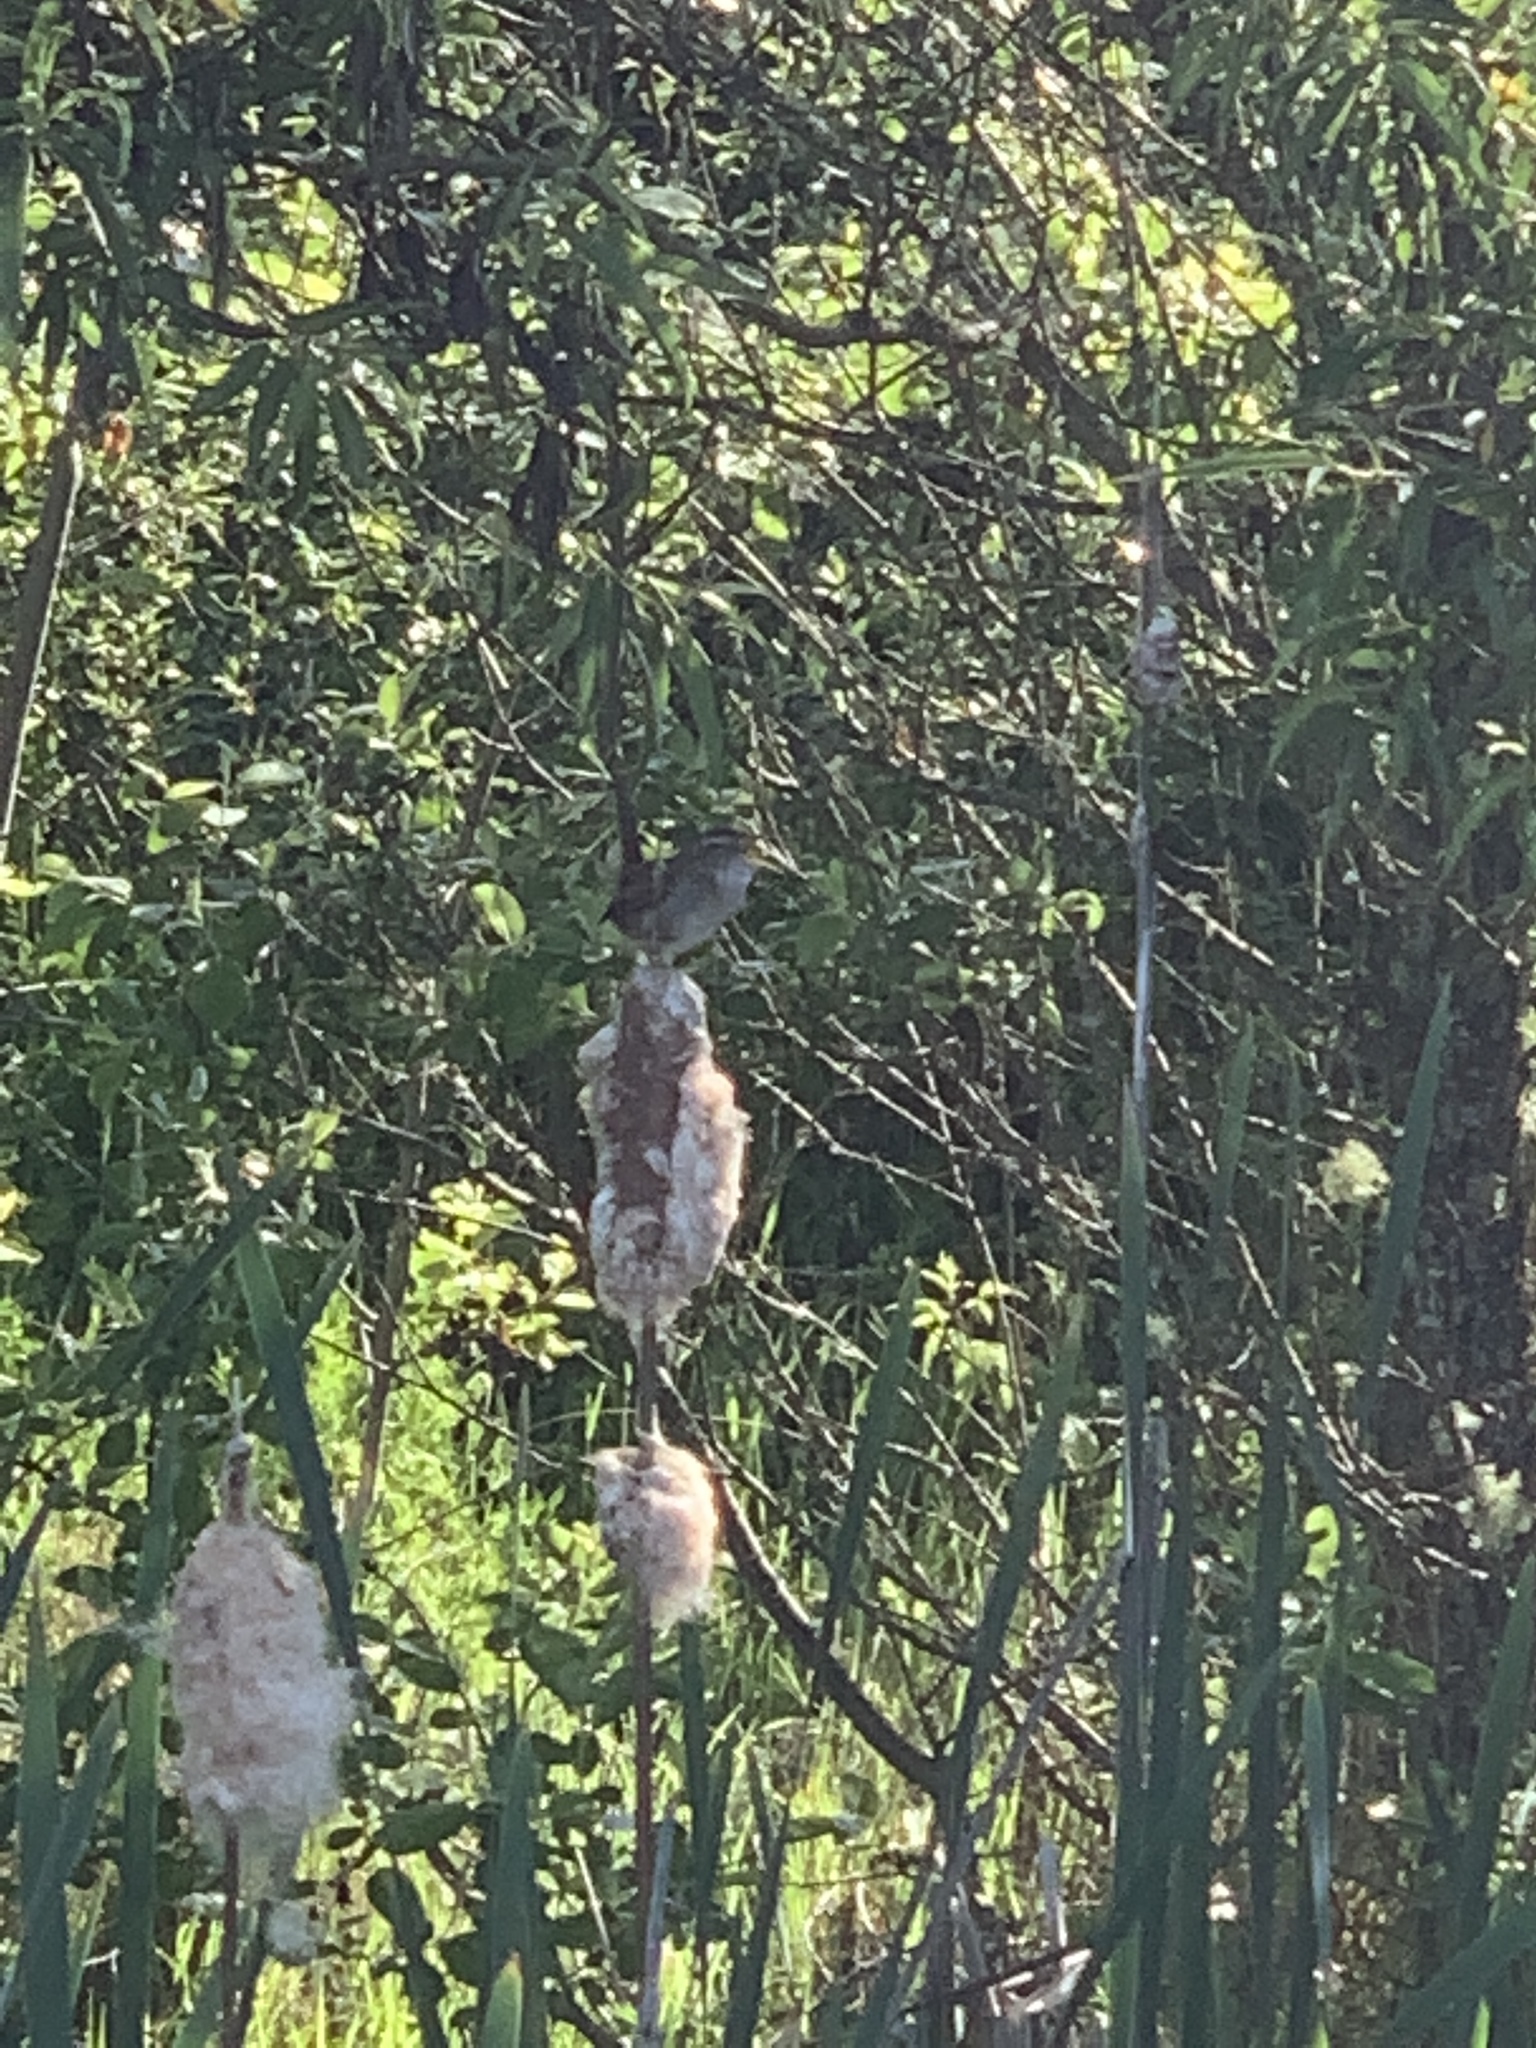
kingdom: Animalia
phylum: Chordata
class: Aves
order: Passeriformes
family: Troglodytidae
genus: Cistothorus
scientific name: Cistothorus palustris
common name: Marsh wren
